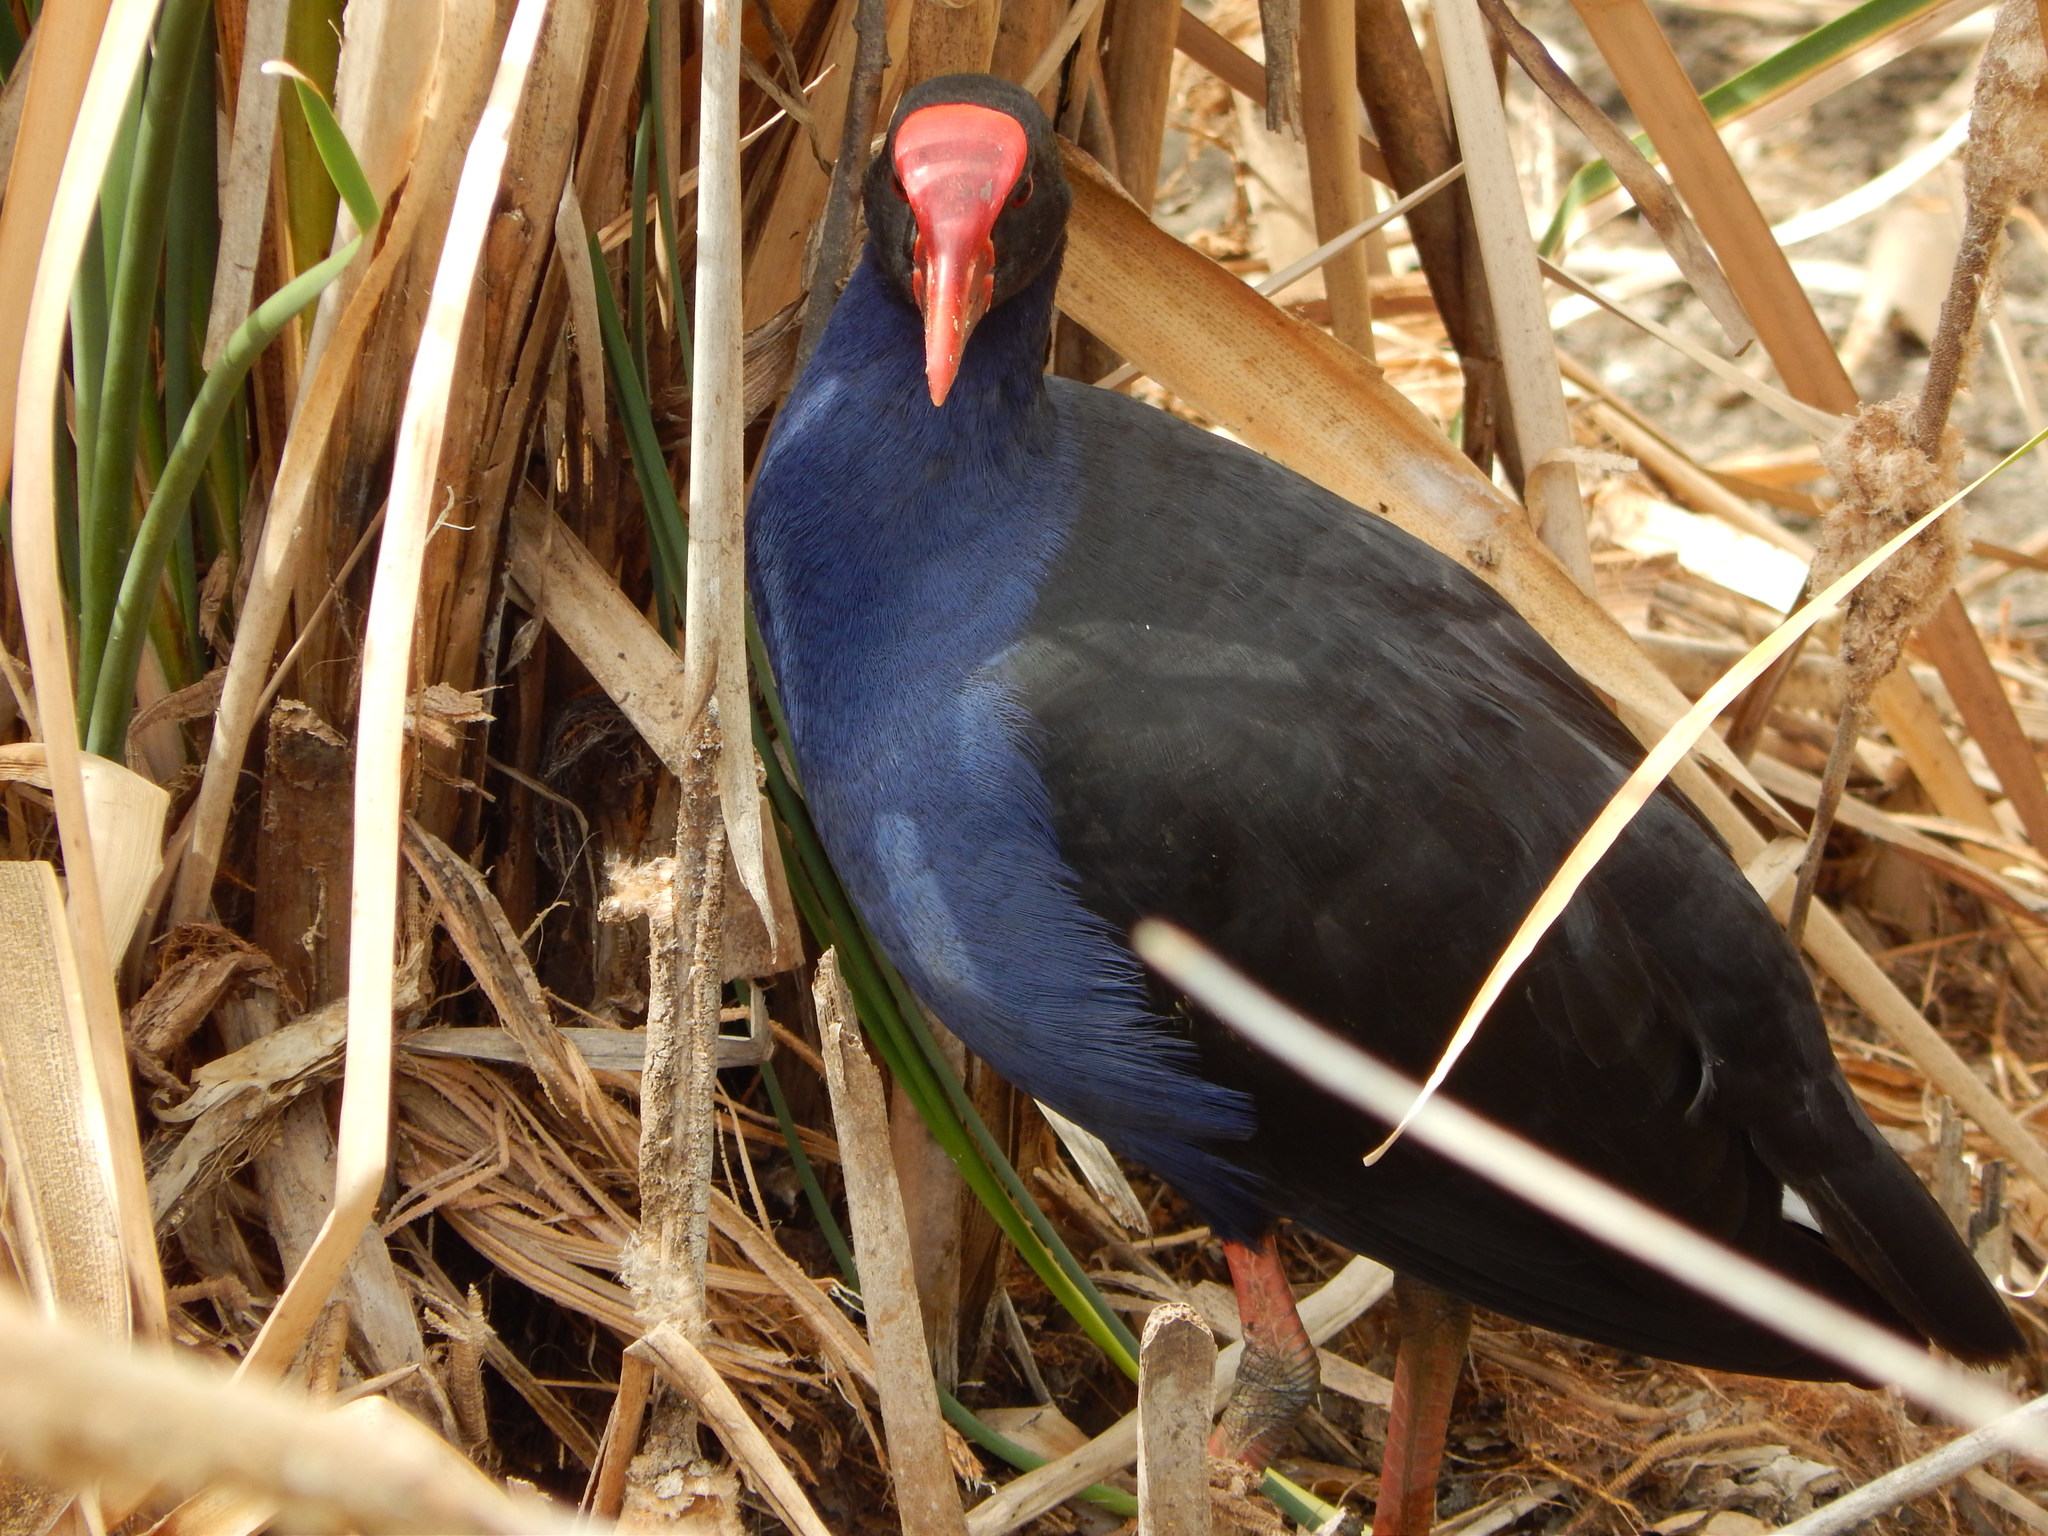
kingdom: Animalia
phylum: Chordata
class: Aves
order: Gruiformes
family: Rallidae
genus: Porphyrio
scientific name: Porphyrio melanotus
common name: Australasian swamphen
